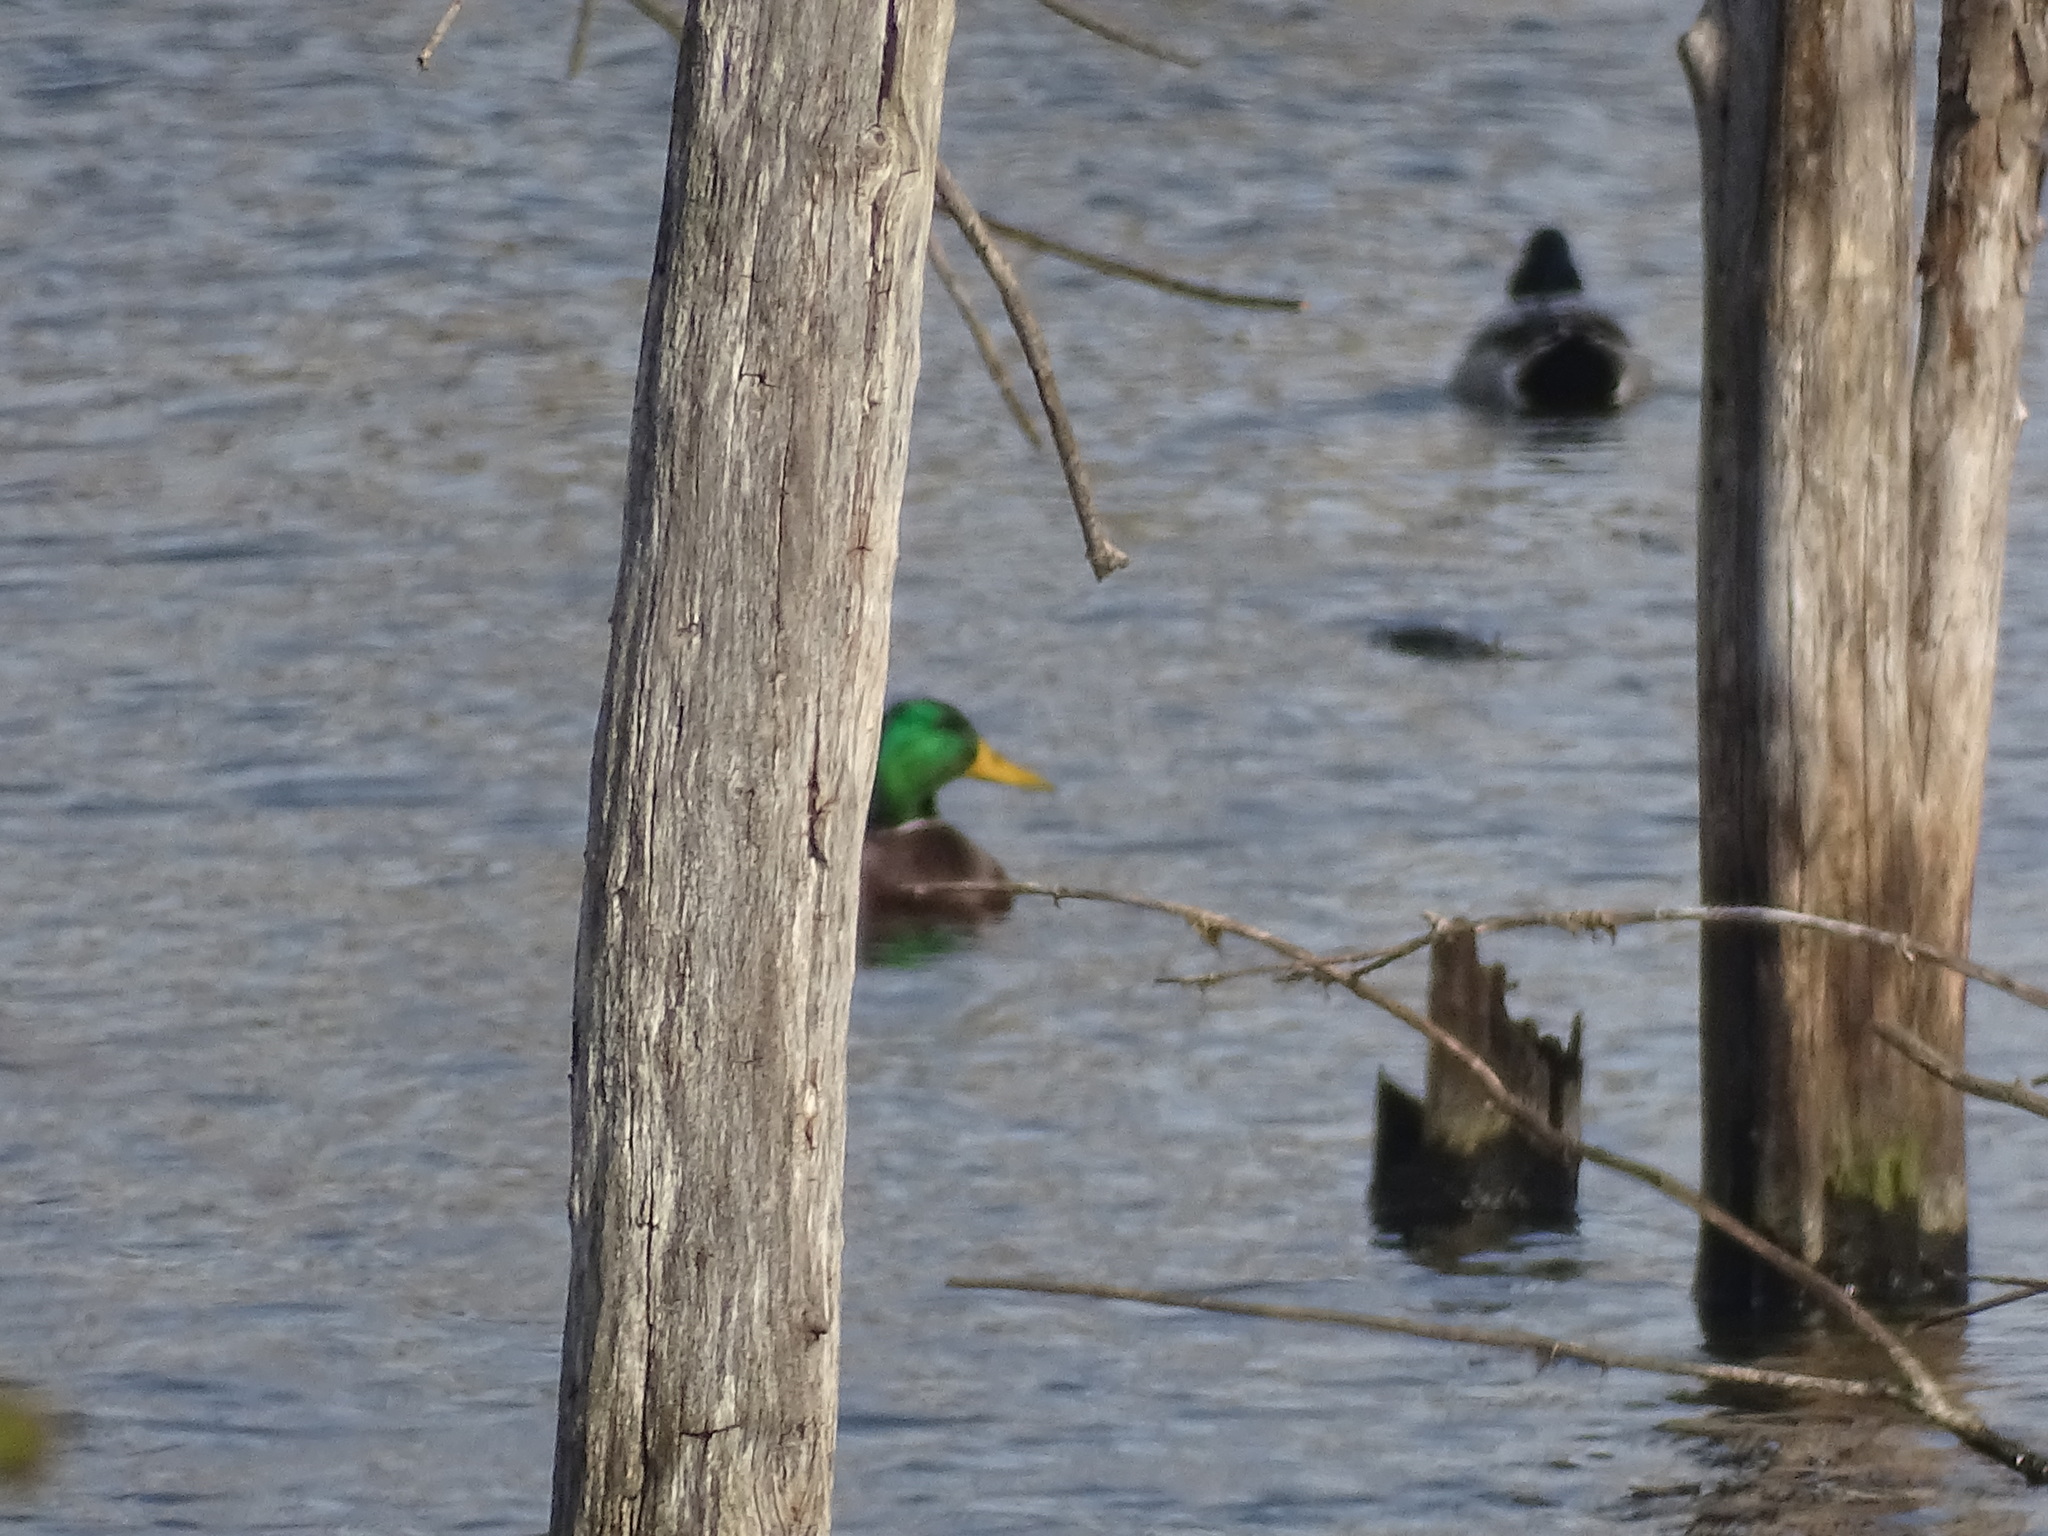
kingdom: Animalia
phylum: Chordata
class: Aves
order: Anseriformes
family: Anatidae
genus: Anas
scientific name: Anas platyrhynchos
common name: Mallard
